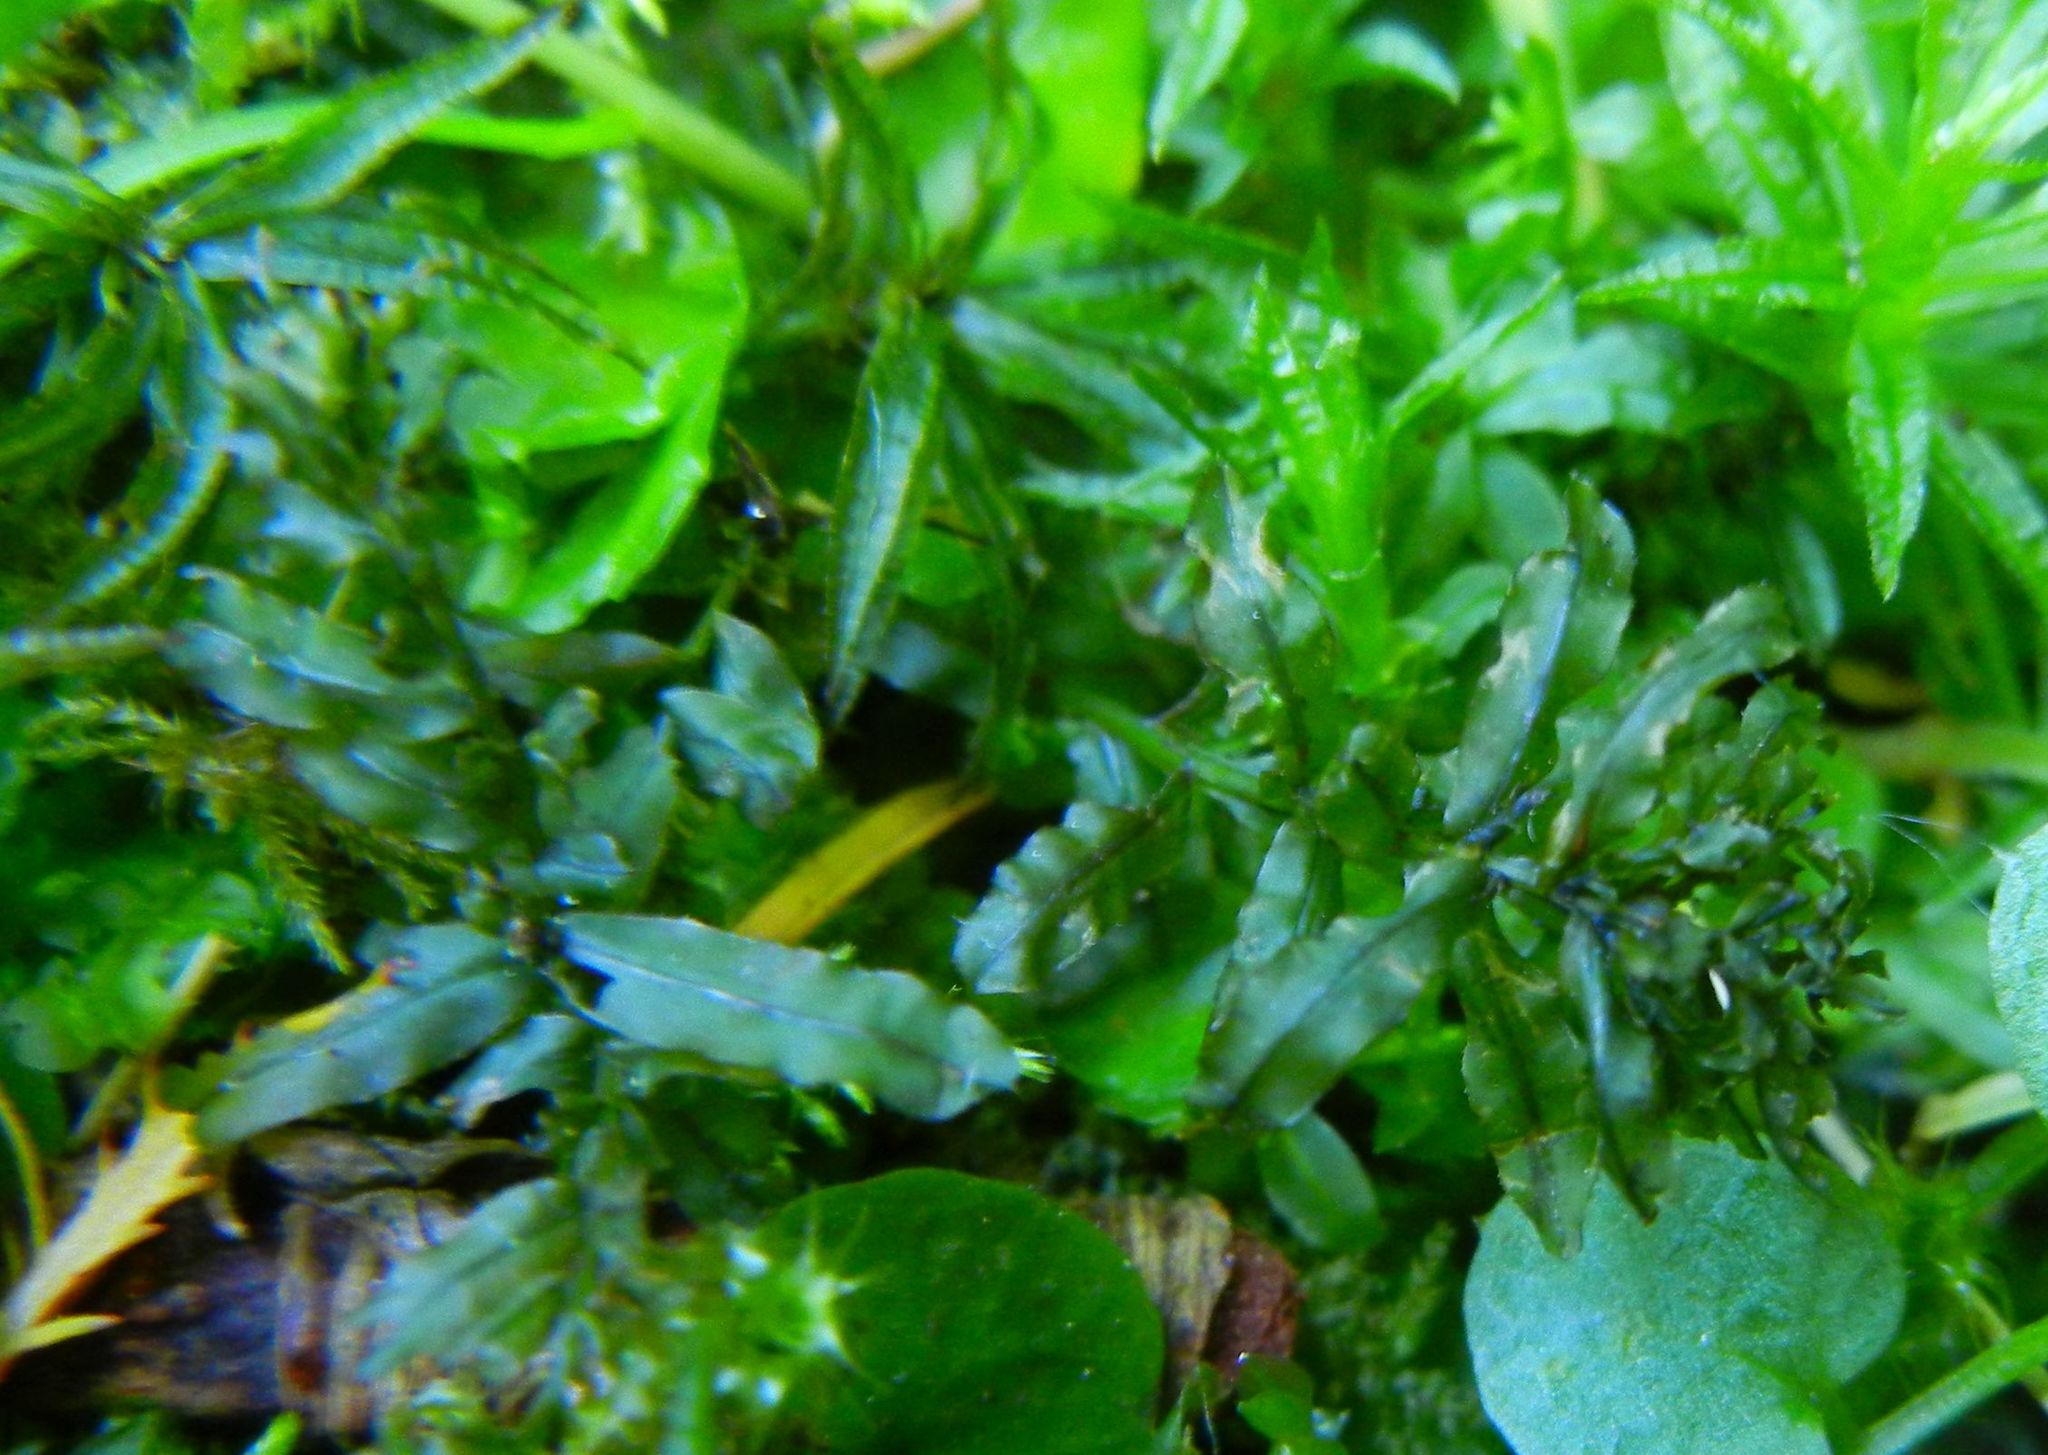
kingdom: Plantae
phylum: Bryophyta
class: Bryopsida
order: Bryales
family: Mniaceae
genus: Plagiomnium
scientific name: Plagiomnium undulatum
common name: Hart's-tongue thyme-moss
